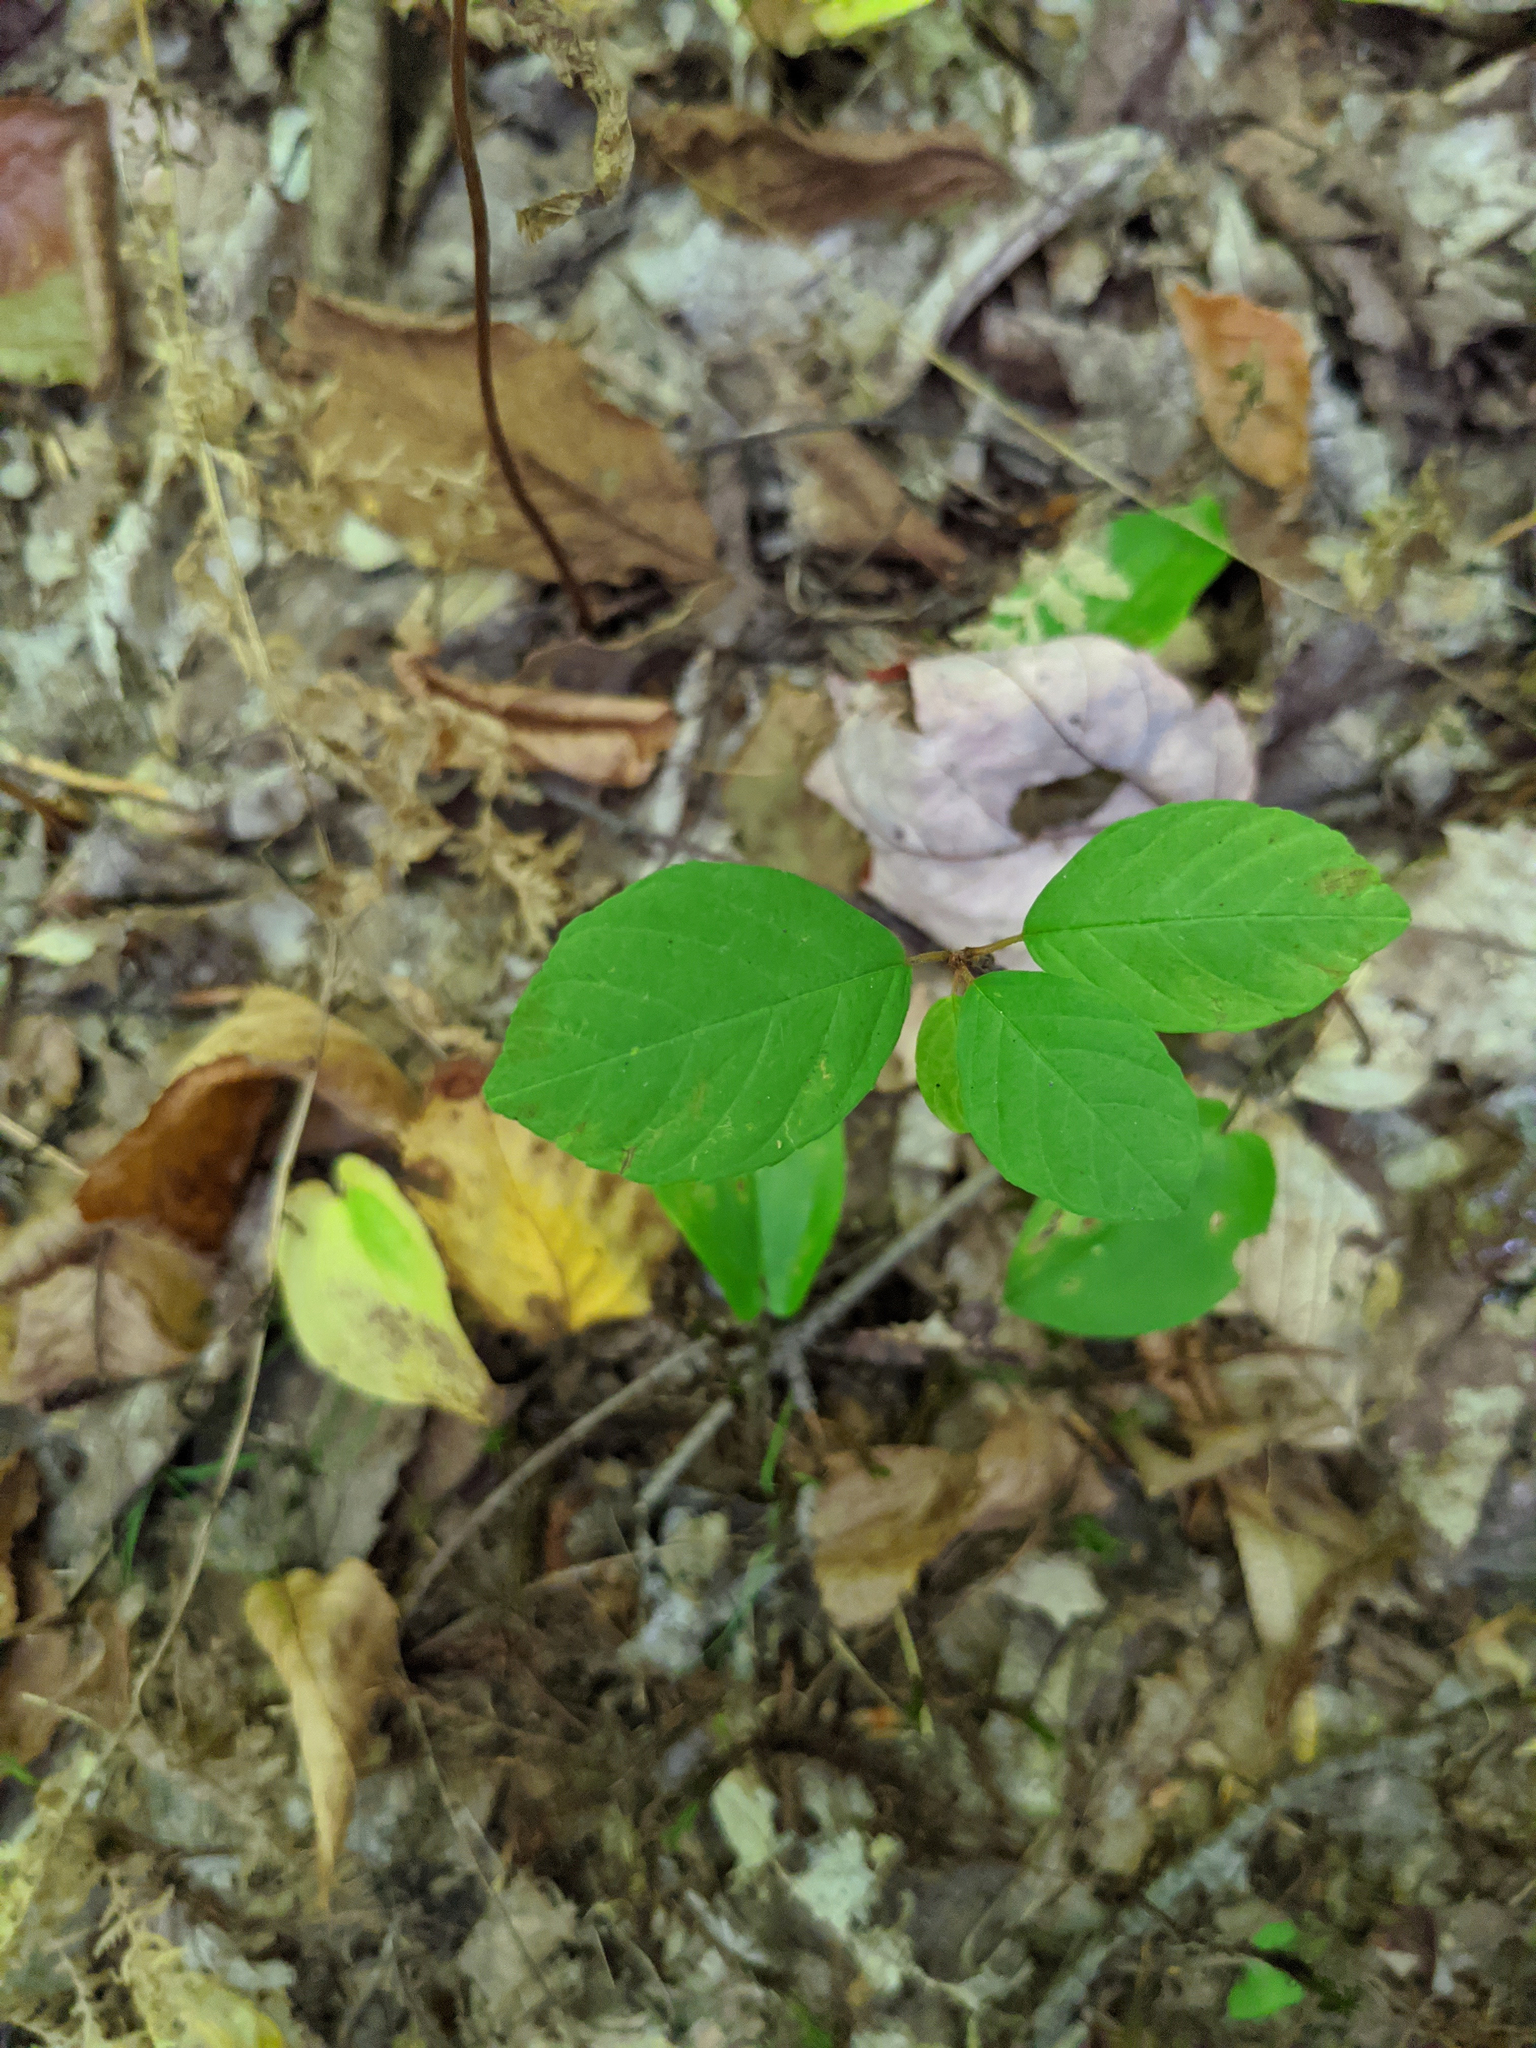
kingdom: Plantae
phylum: Tracheophyta
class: Magnoliopsida
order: Rosales
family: Rhamnaceae
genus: Frangula
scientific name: Frangula alnus
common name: Alder buckthorn
